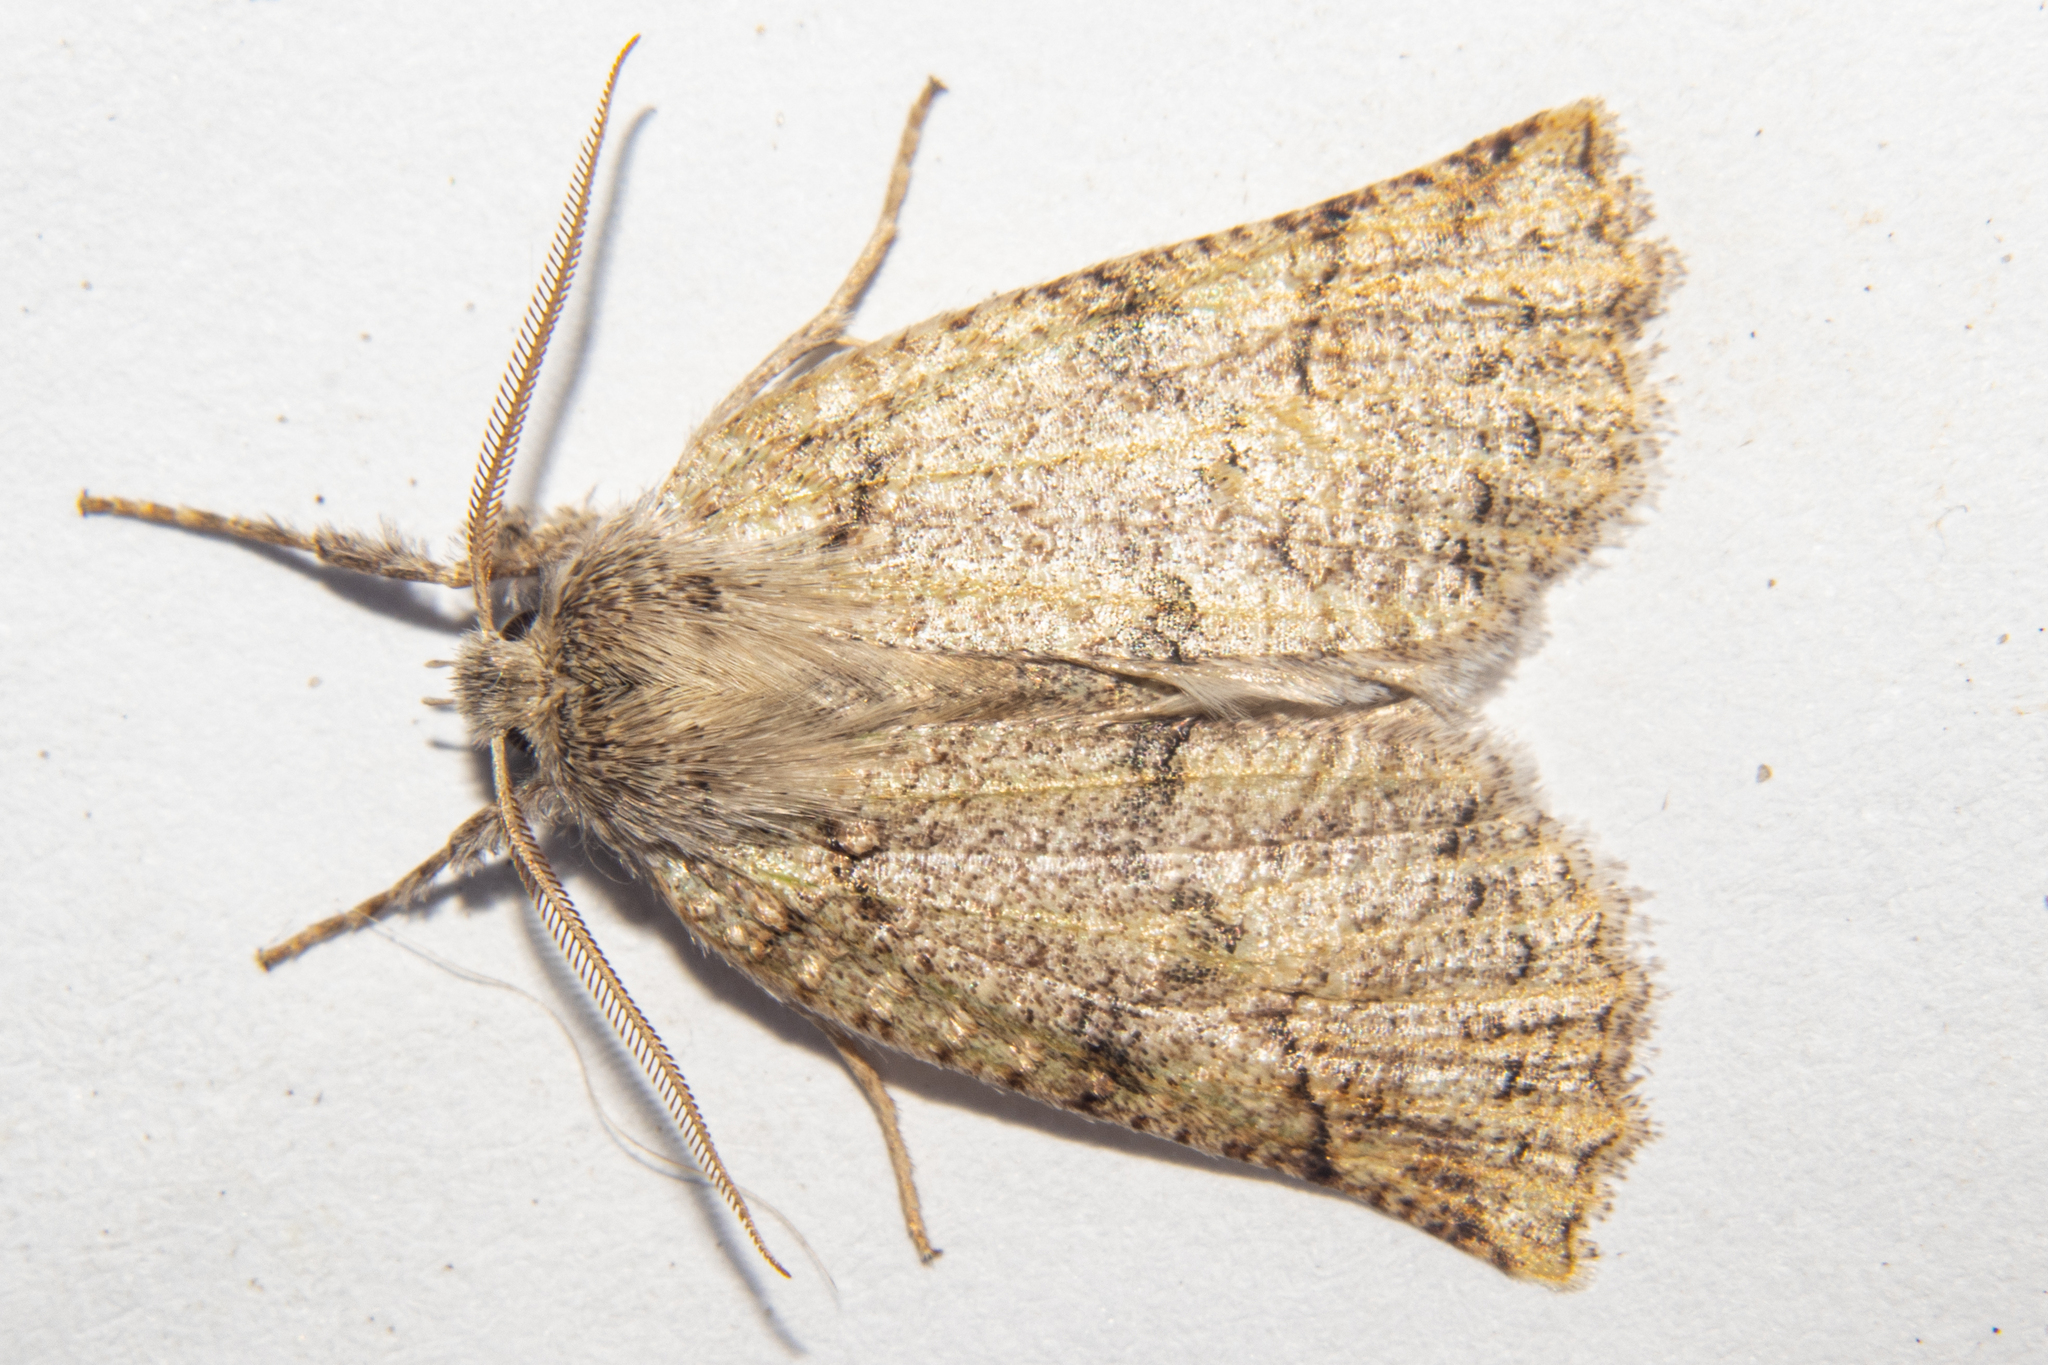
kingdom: Animalia
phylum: Arthropoda
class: Insecta
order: Lepidoptera
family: Geometridae
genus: Declana
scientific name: Declana floccosa
